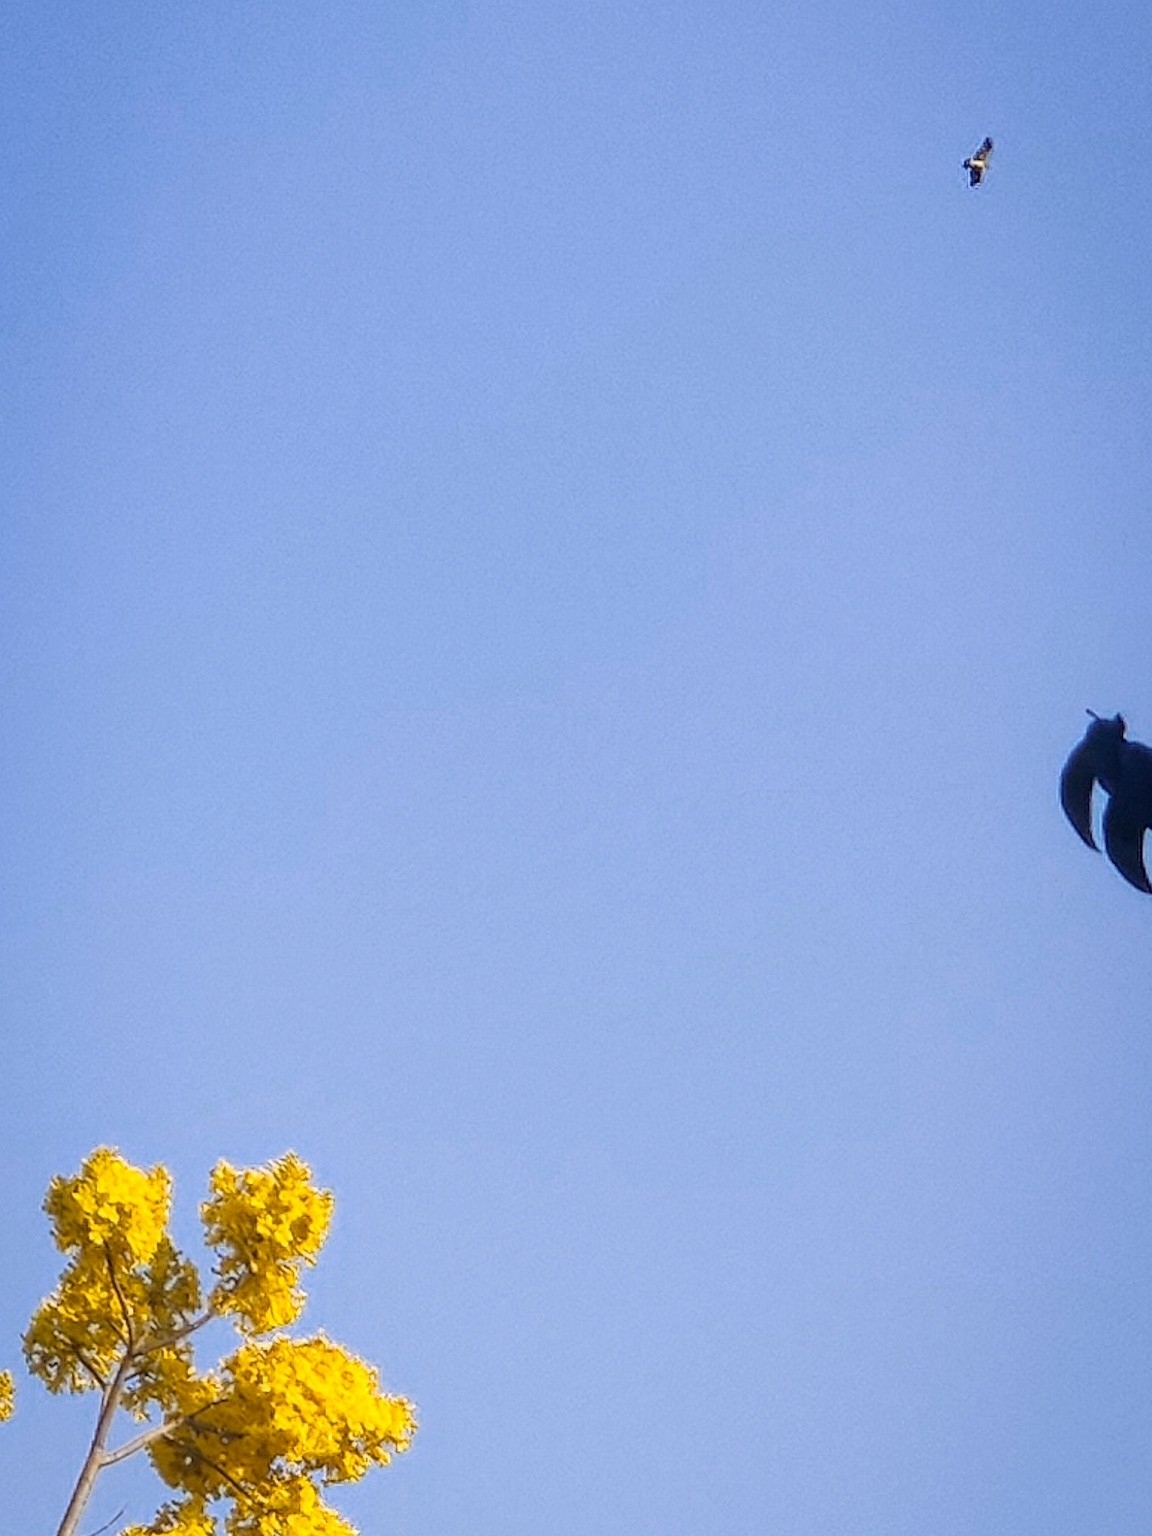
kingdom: Animalia
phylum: Chordata
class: Aves
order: Accipitriformes
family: Accipitridae
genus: Hieraaetus
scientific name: Hieraaetus pennatus
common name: Booted eagle
